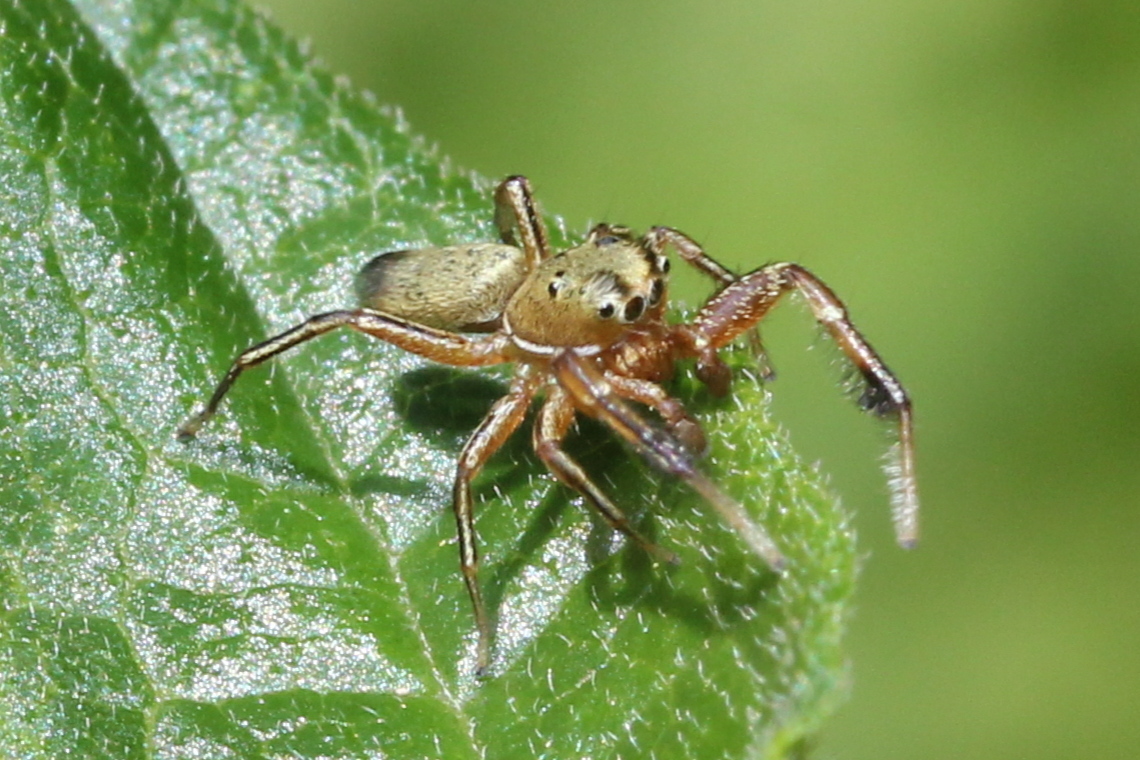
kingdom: Animalia
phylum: Arthropoda
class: Arachnida
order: Araneae
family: Salticidae
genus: Tutelina
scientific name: Tutelina elegans
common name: Thin-spined jumping spider
